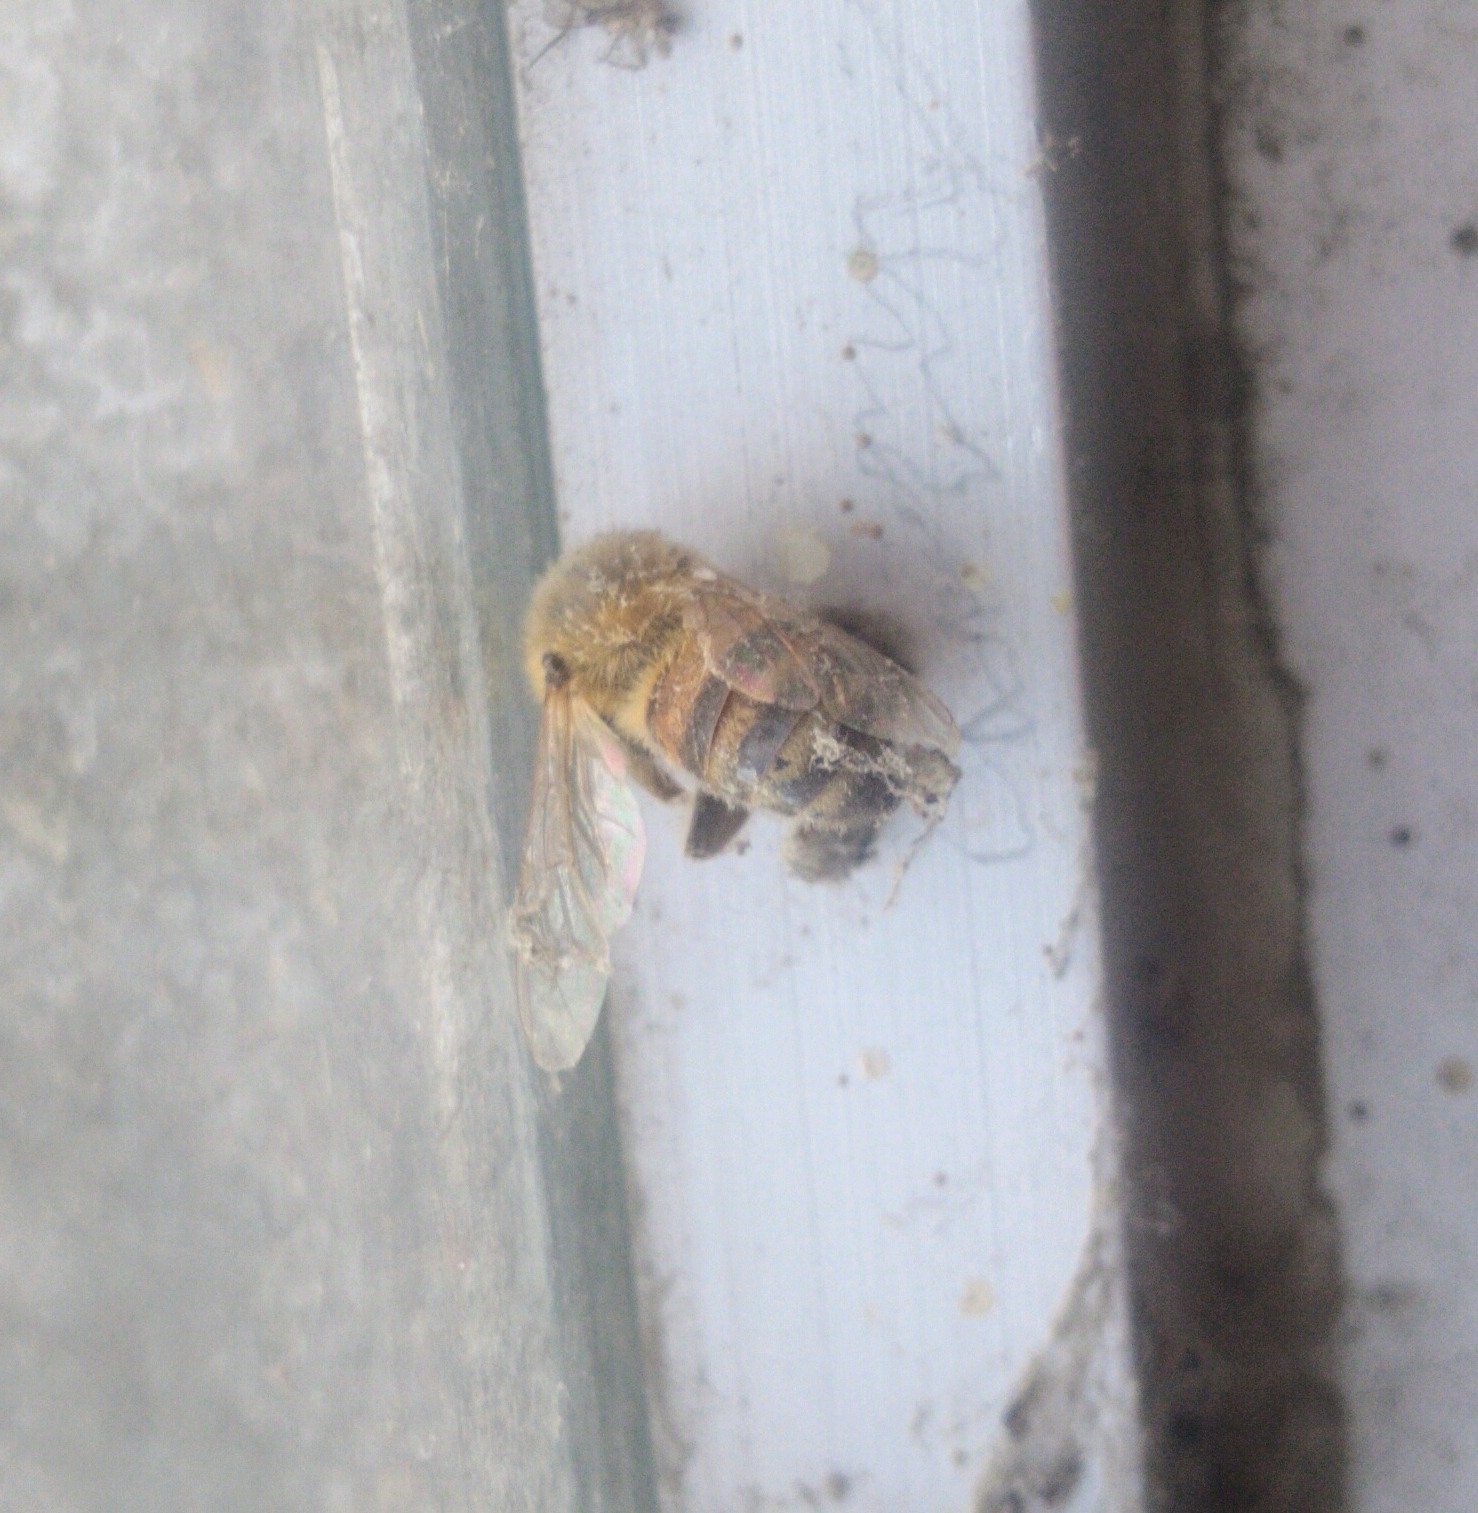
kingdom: Animalia
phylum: Arthropoda
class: Insecta
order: Hymenoptera
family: Apidae
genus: Apis
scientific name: Apis mellifera
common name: Honey bee
